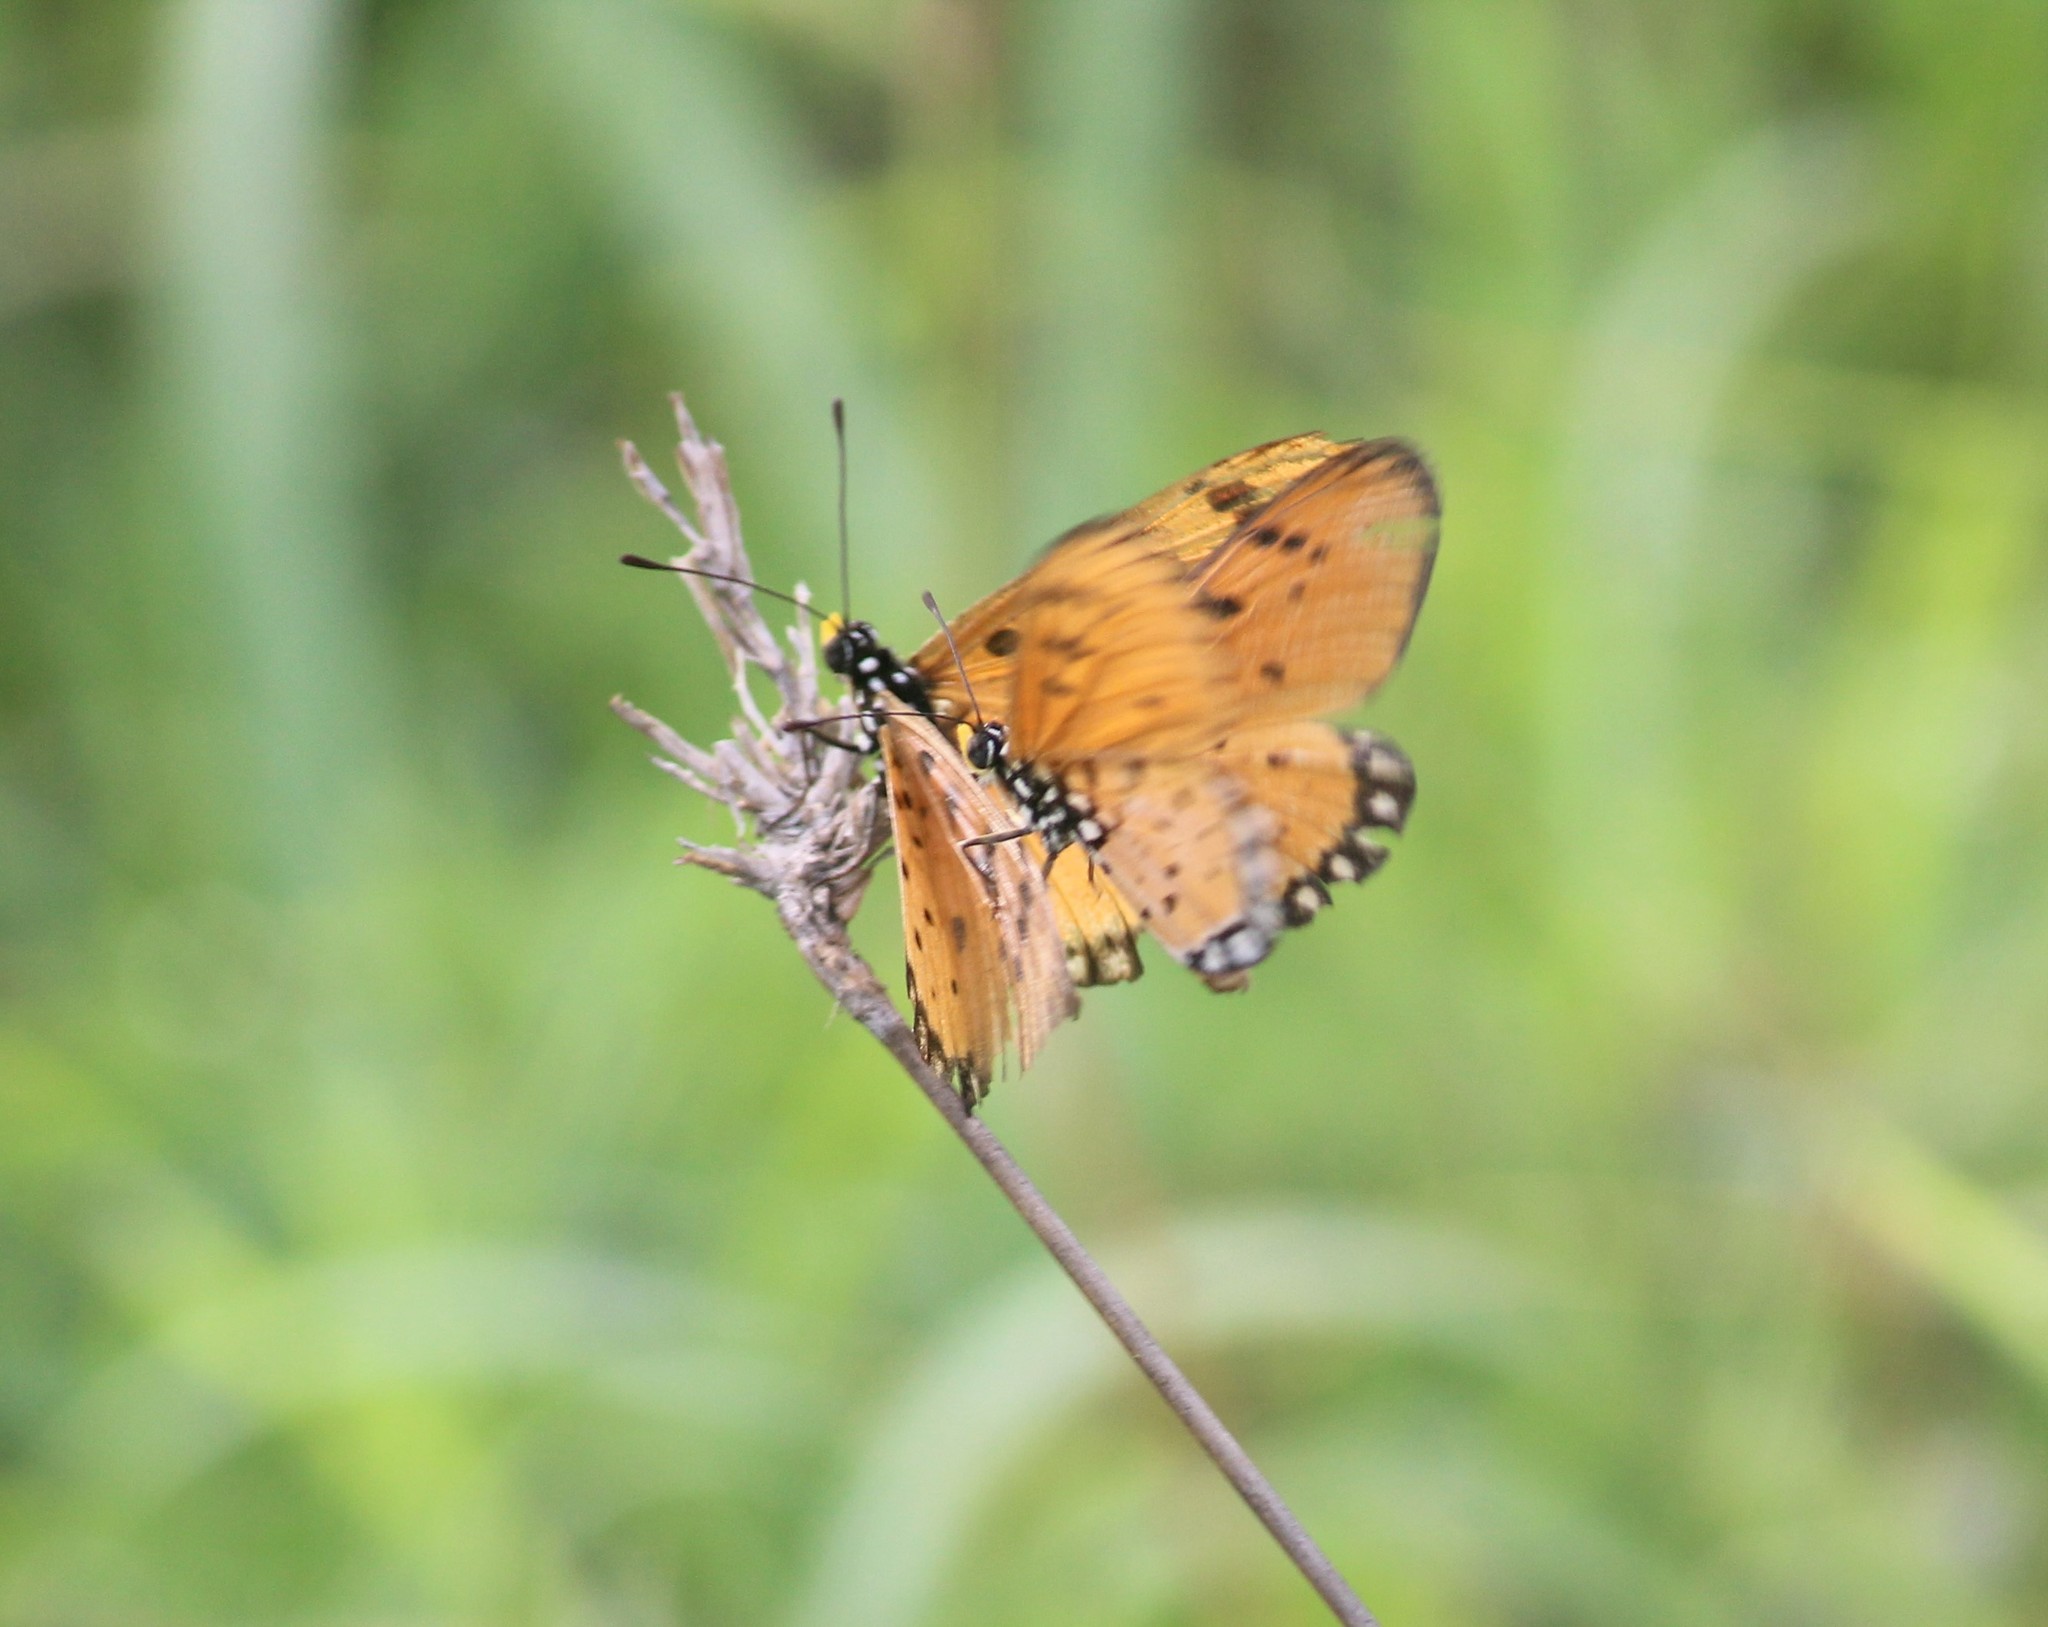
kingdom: Animalia
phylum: Arthropoda
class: Insecta
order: Lepidoptera
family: Nymphalidae
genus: Acraea
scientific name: Acraea terpsicore
